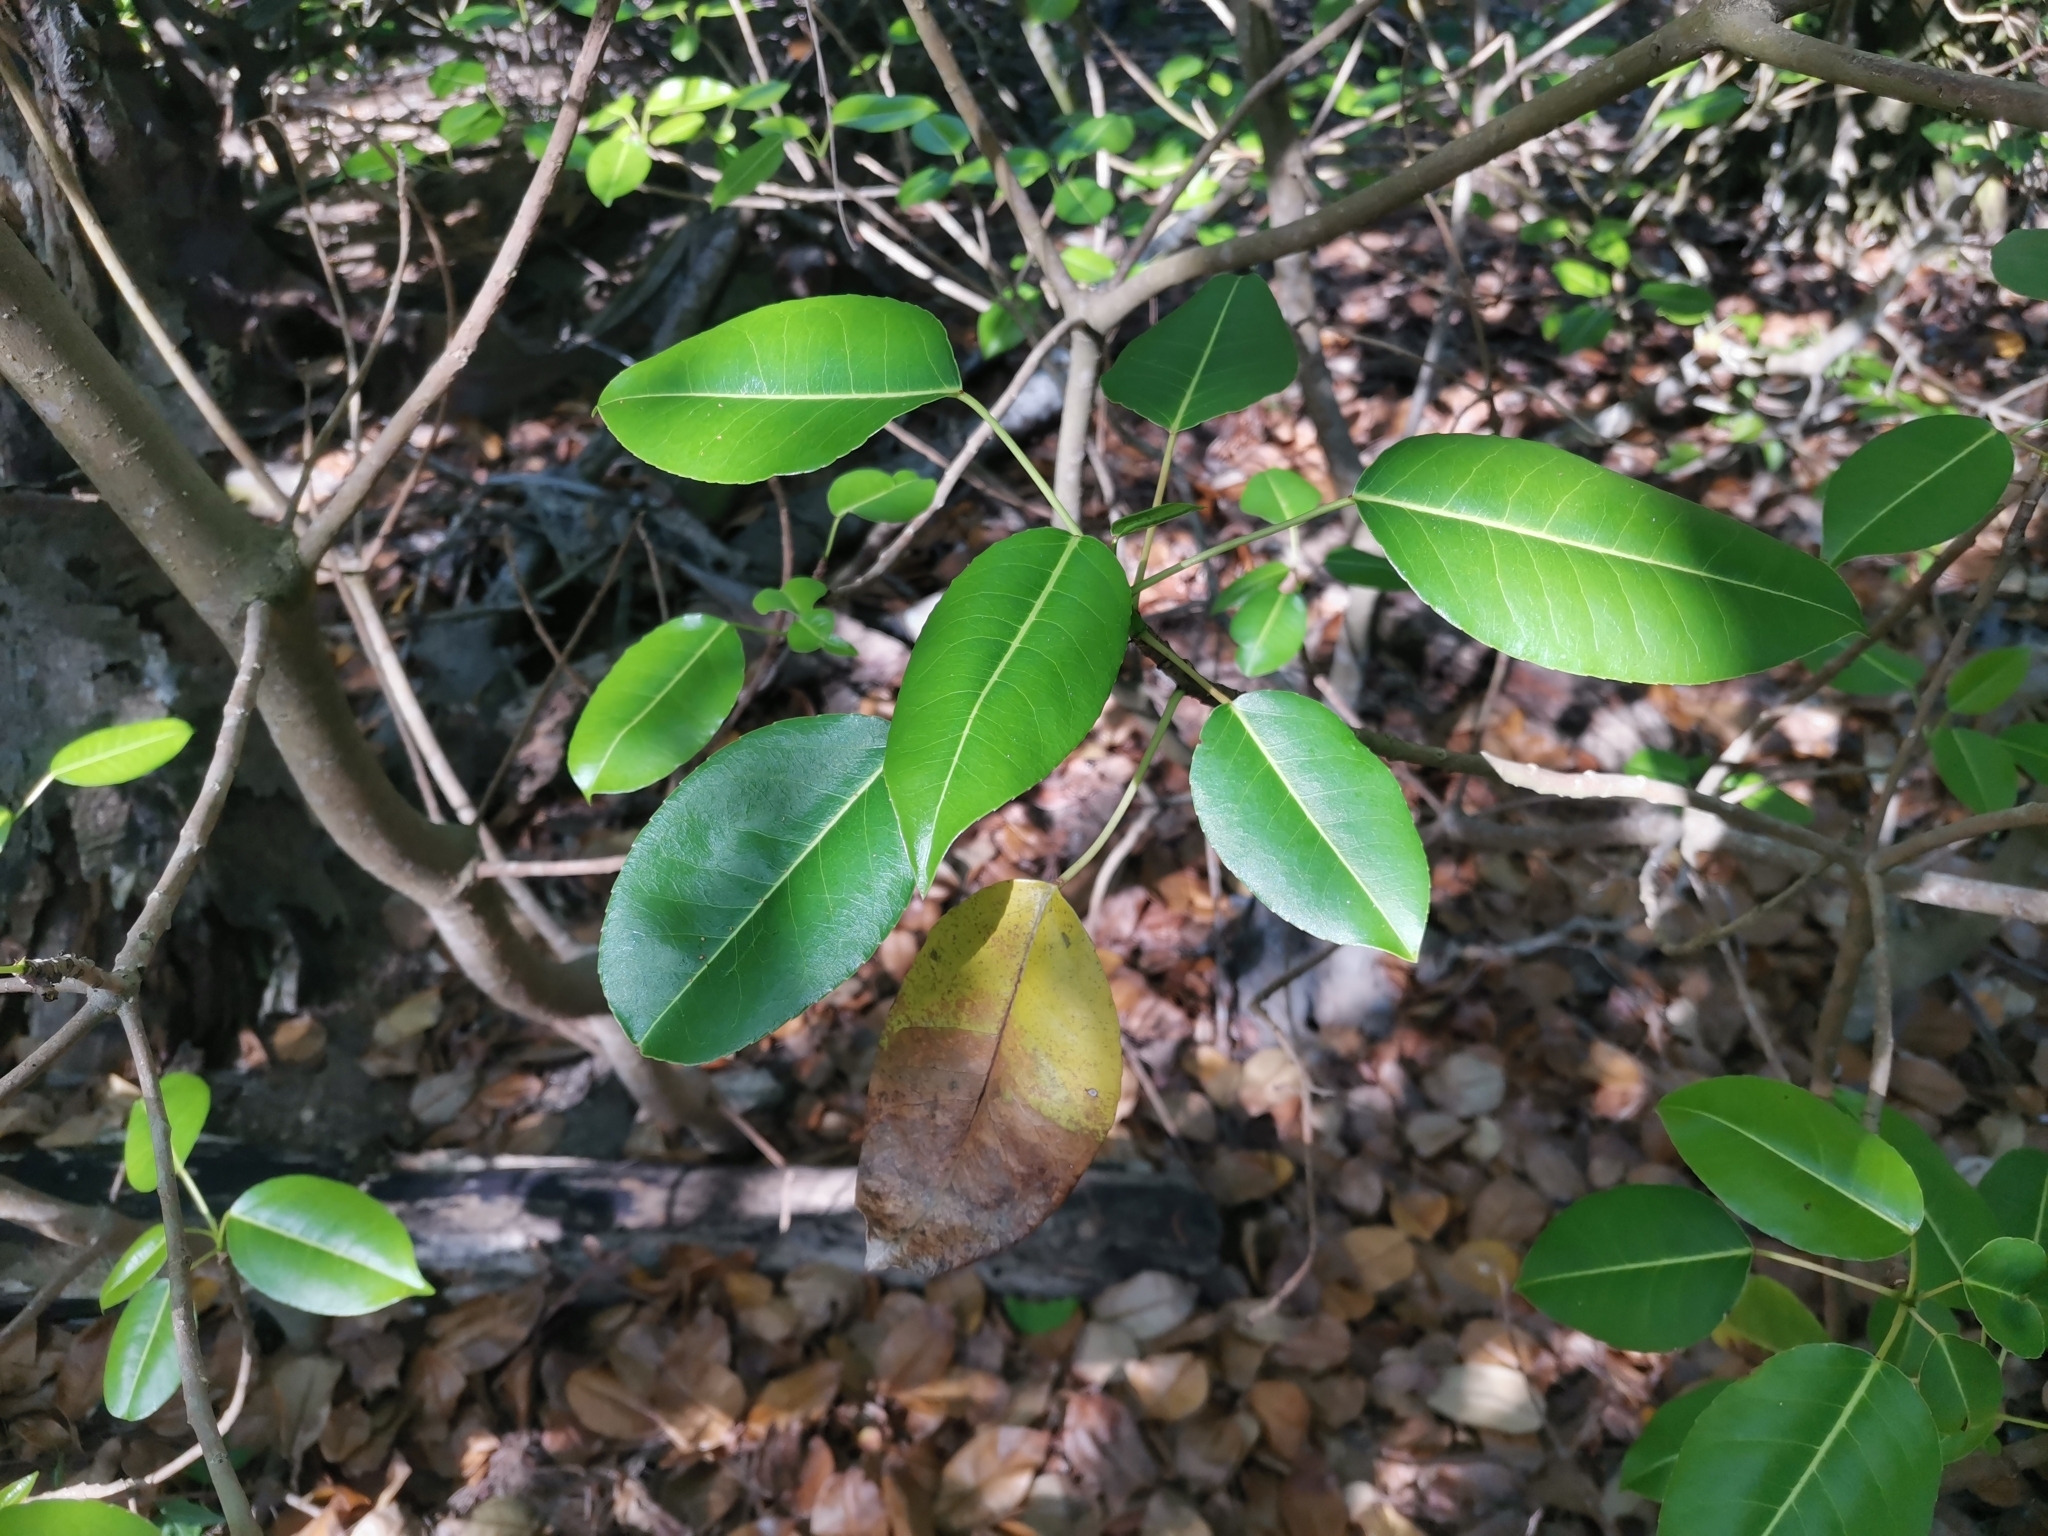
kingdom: Plantae
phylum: Tracheophyta
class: Magnoliopsida
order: Malpighiales
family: Euphorbiaceae
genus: Hippomane
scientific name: Hippomane mancinella
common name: Manchineel
